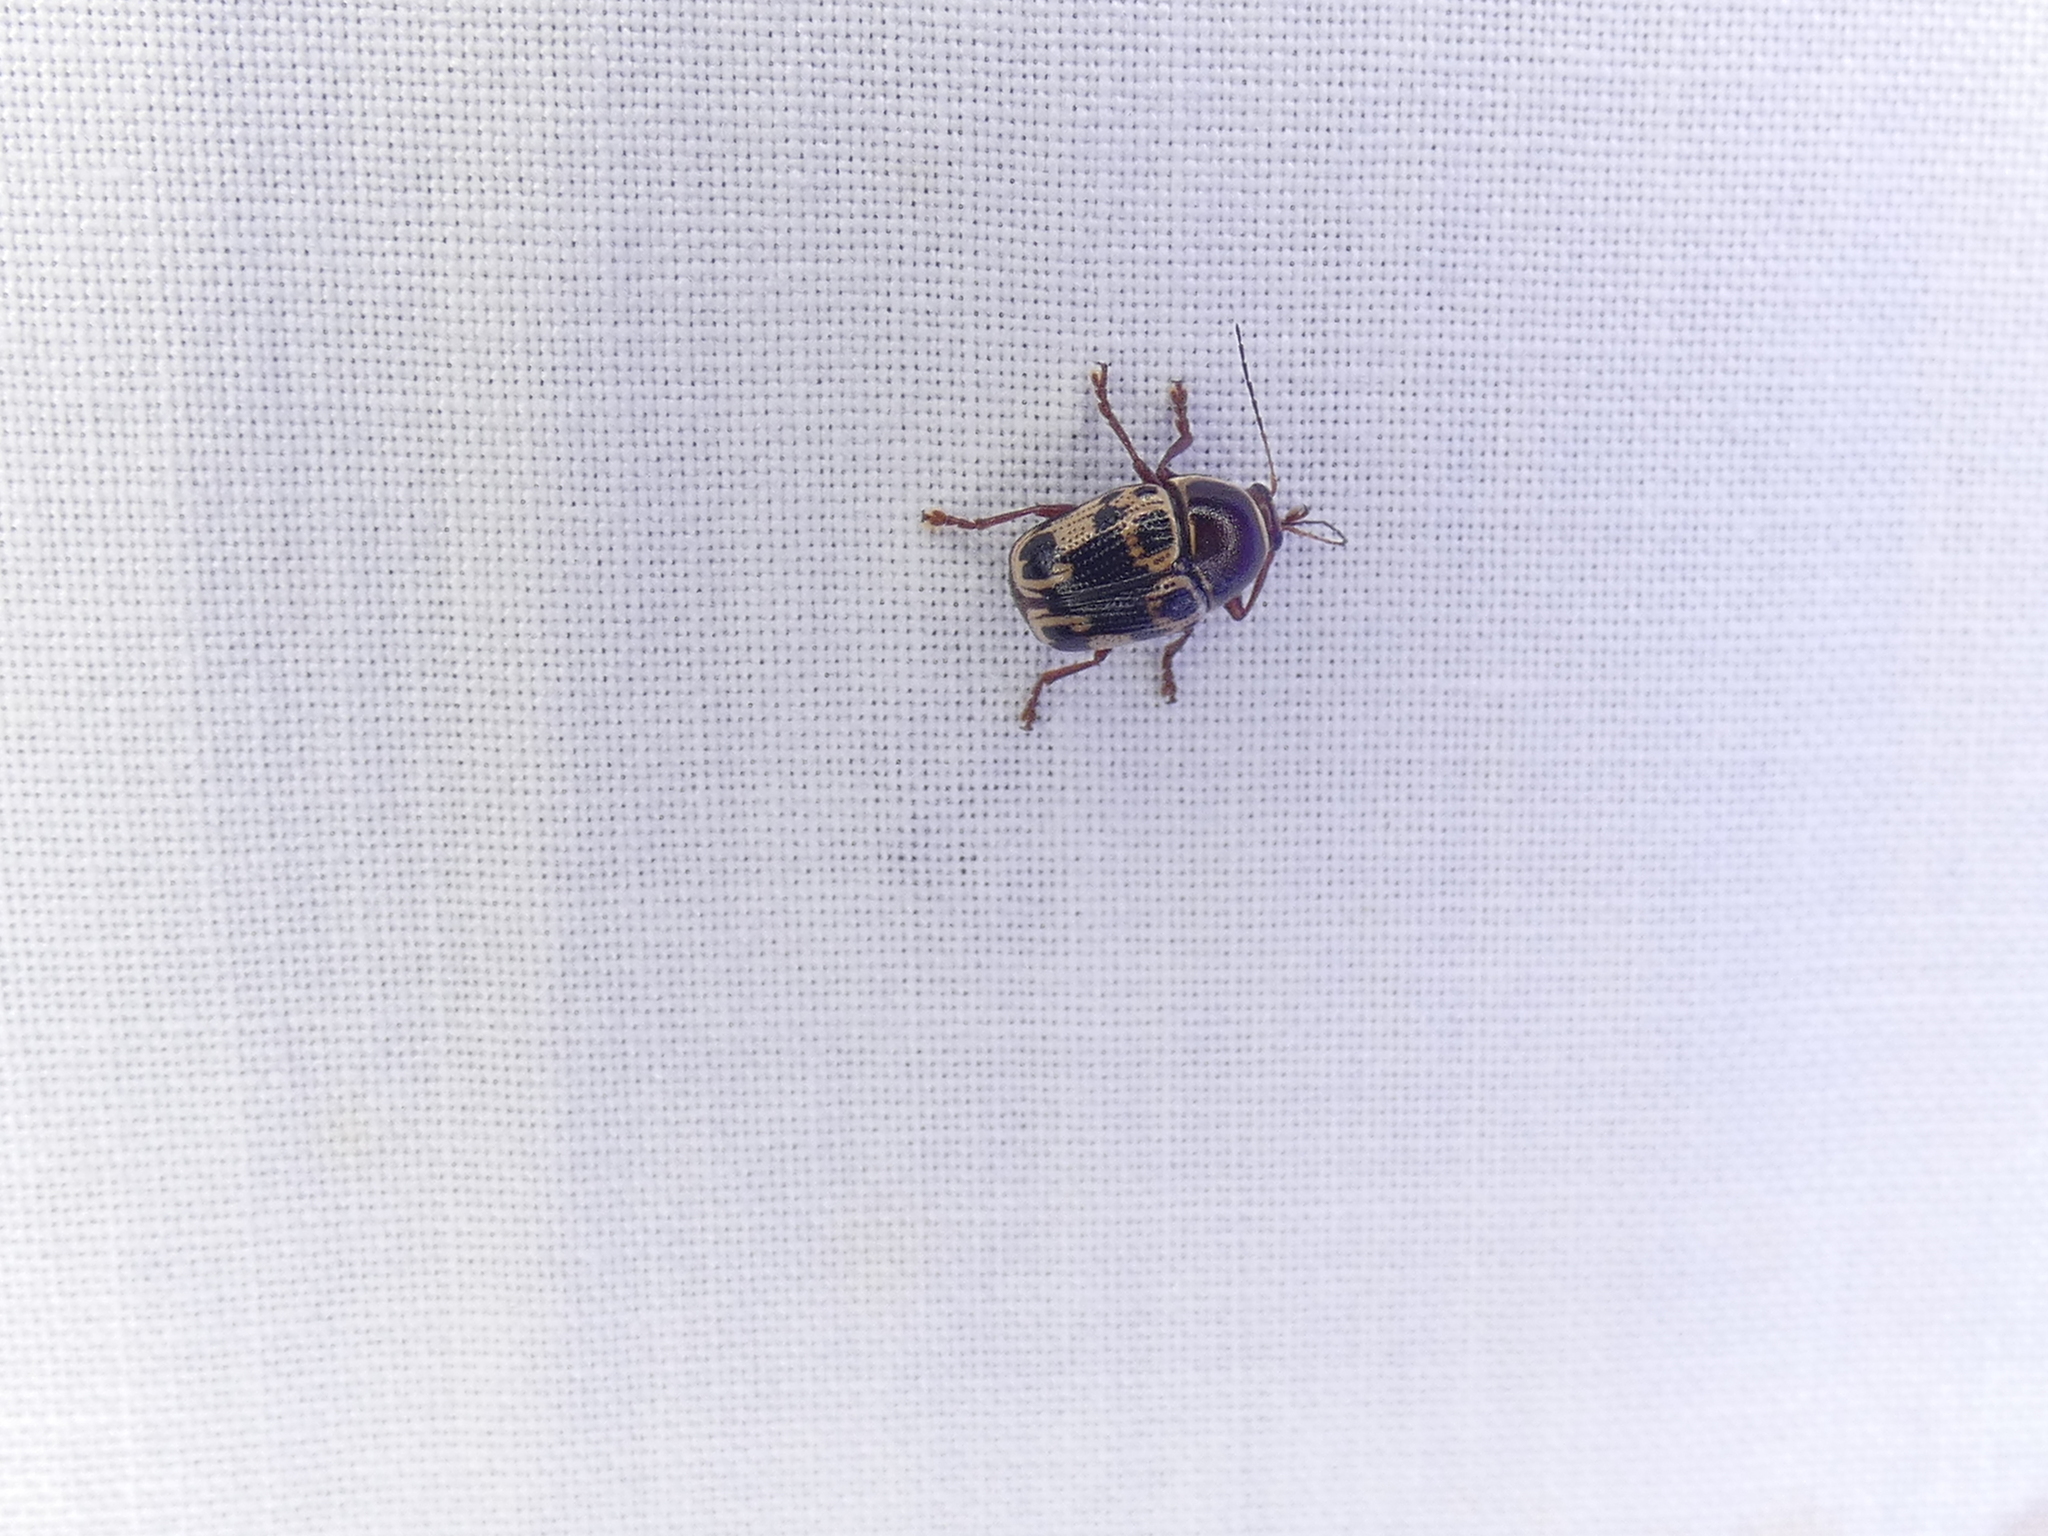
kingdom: Animalia
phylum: Arthropoda
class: Insecta
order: Coleoptera
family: Chrysomelidae
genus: Cryptocephalus
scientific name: Cryptocephalus mutabilis
